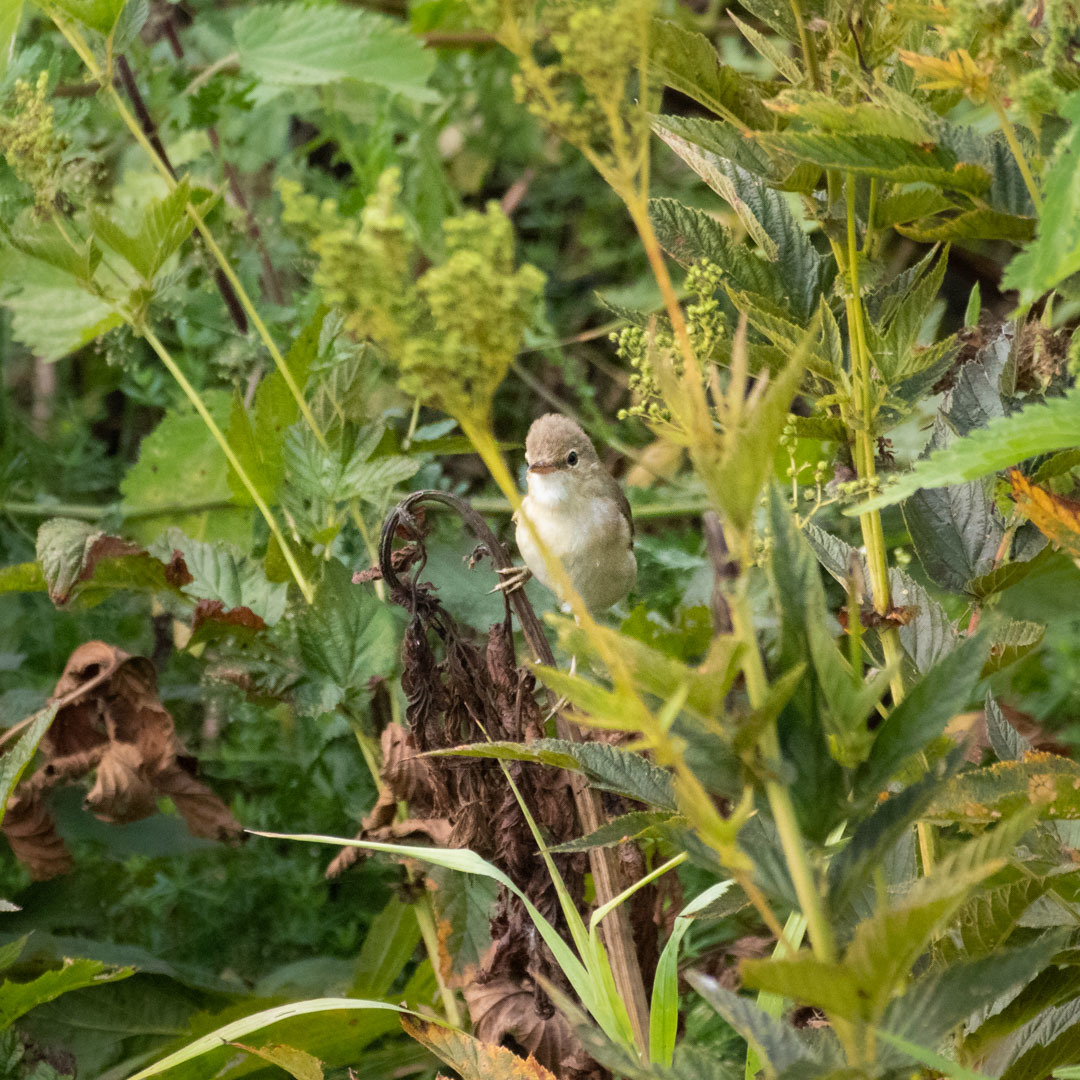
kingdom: Animalia
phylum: Chordata
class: Aves
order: Passeriformes
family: Acrocephalidae
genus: Acrocephalus
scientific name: Acrocephalus palustris
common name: Marsh warbler
